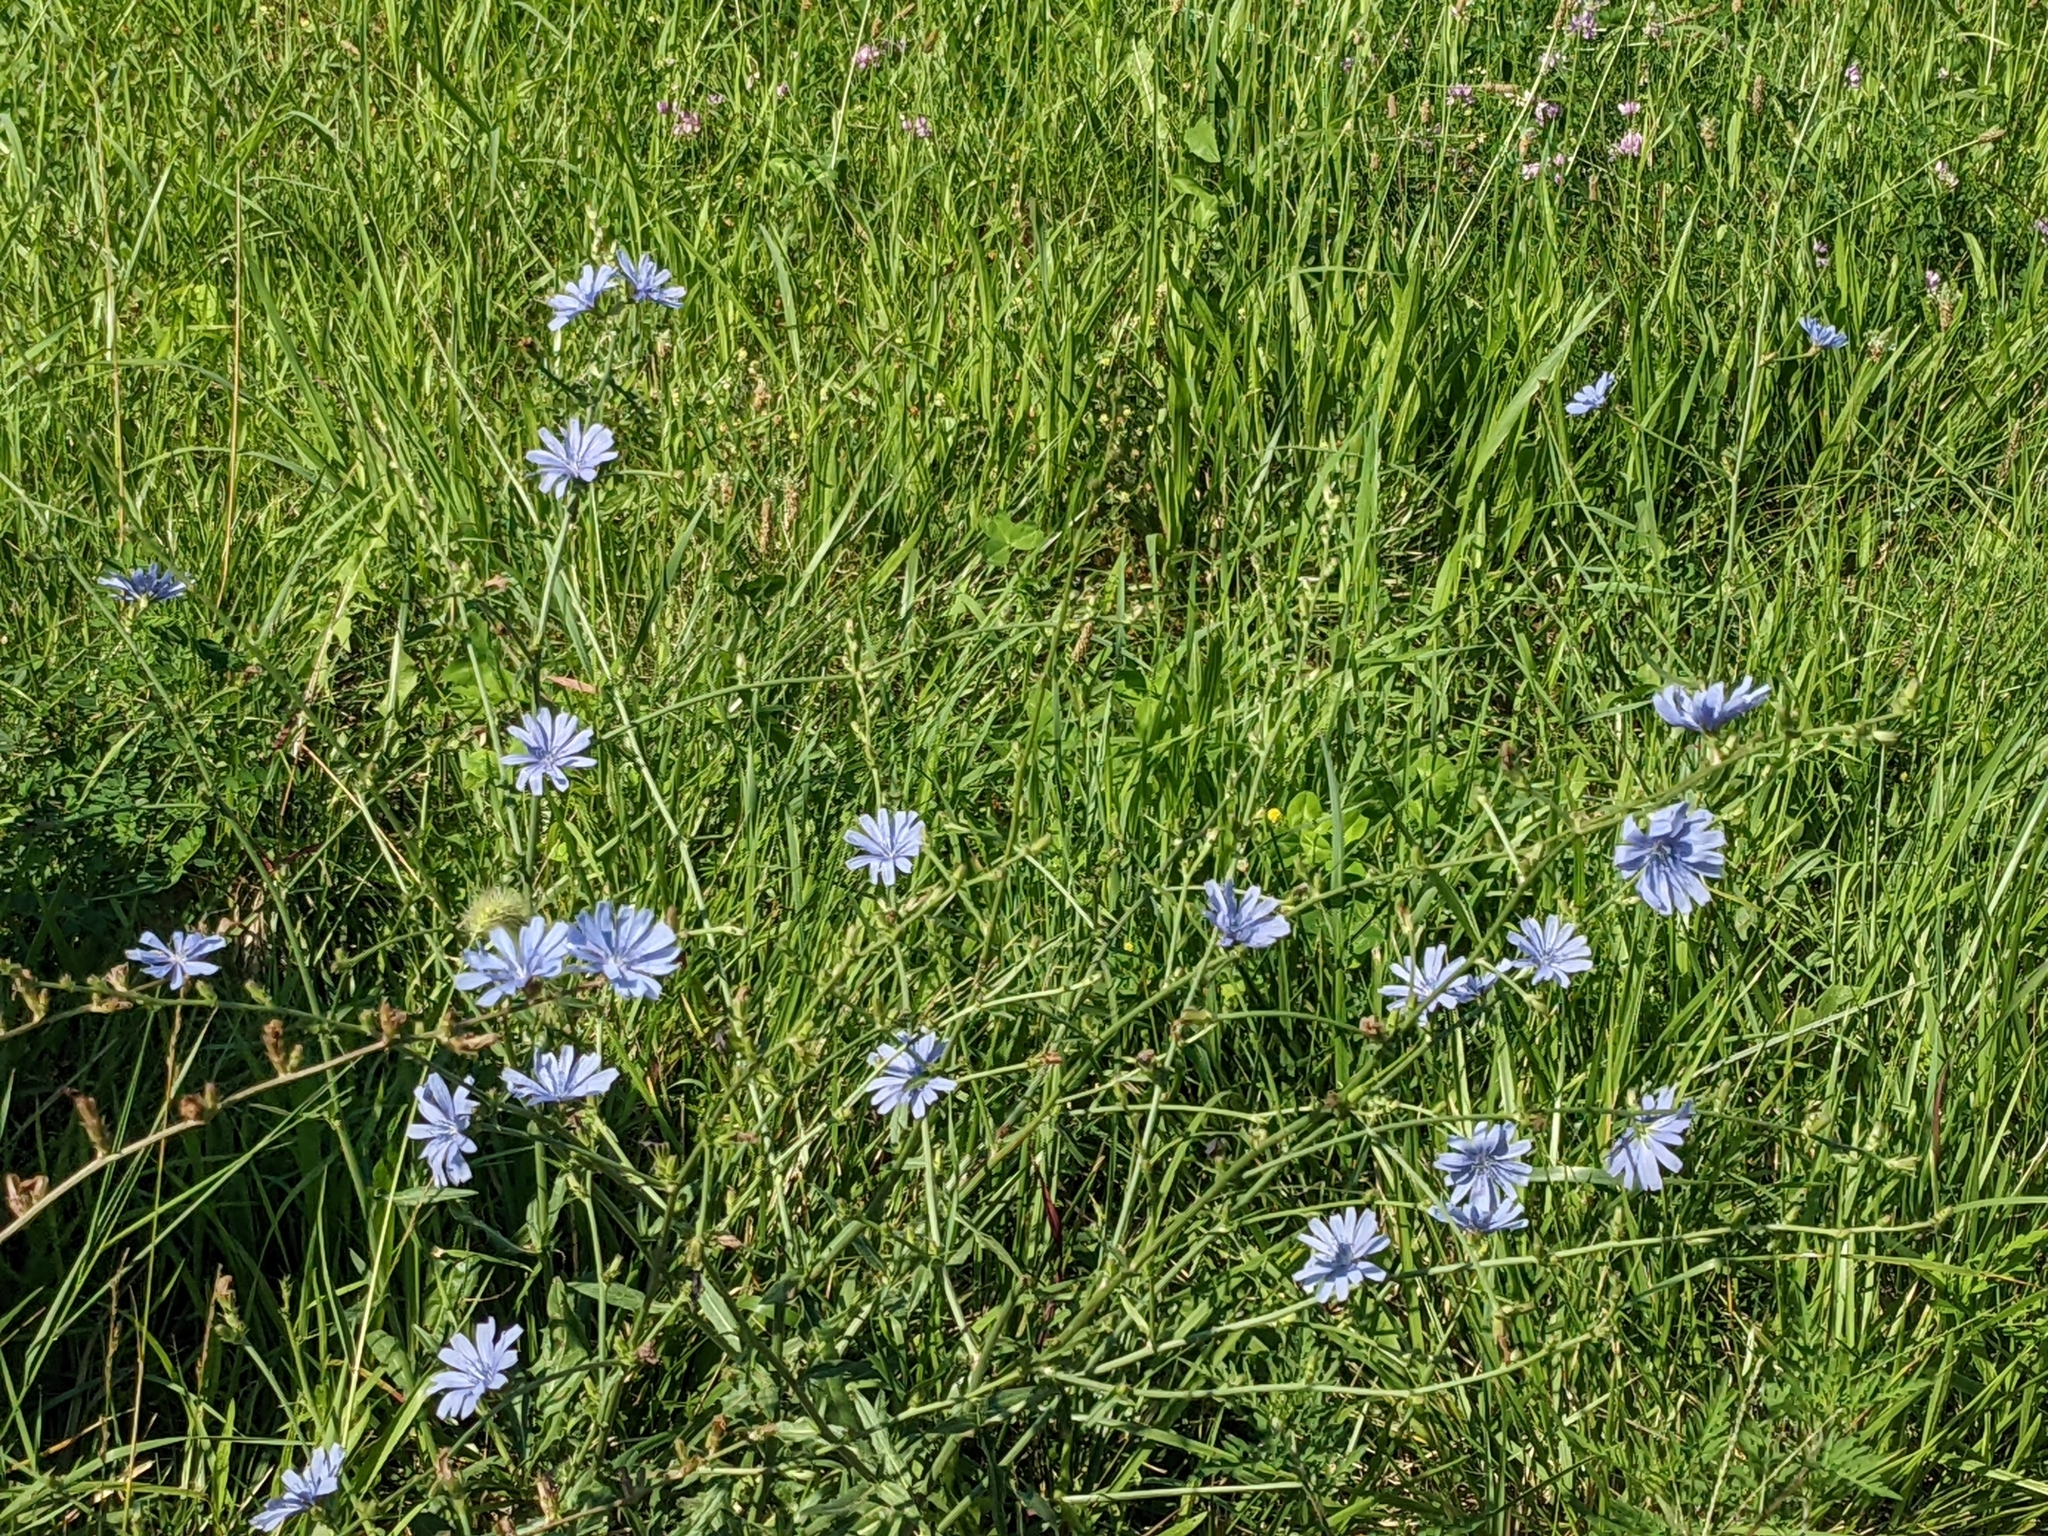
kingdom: Plantae
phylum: Tracheophyta
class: Magnoliopsida
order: Asterales
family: Asteraceae
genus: Cichorium
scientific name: Cichorium intybus
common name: Chicory
